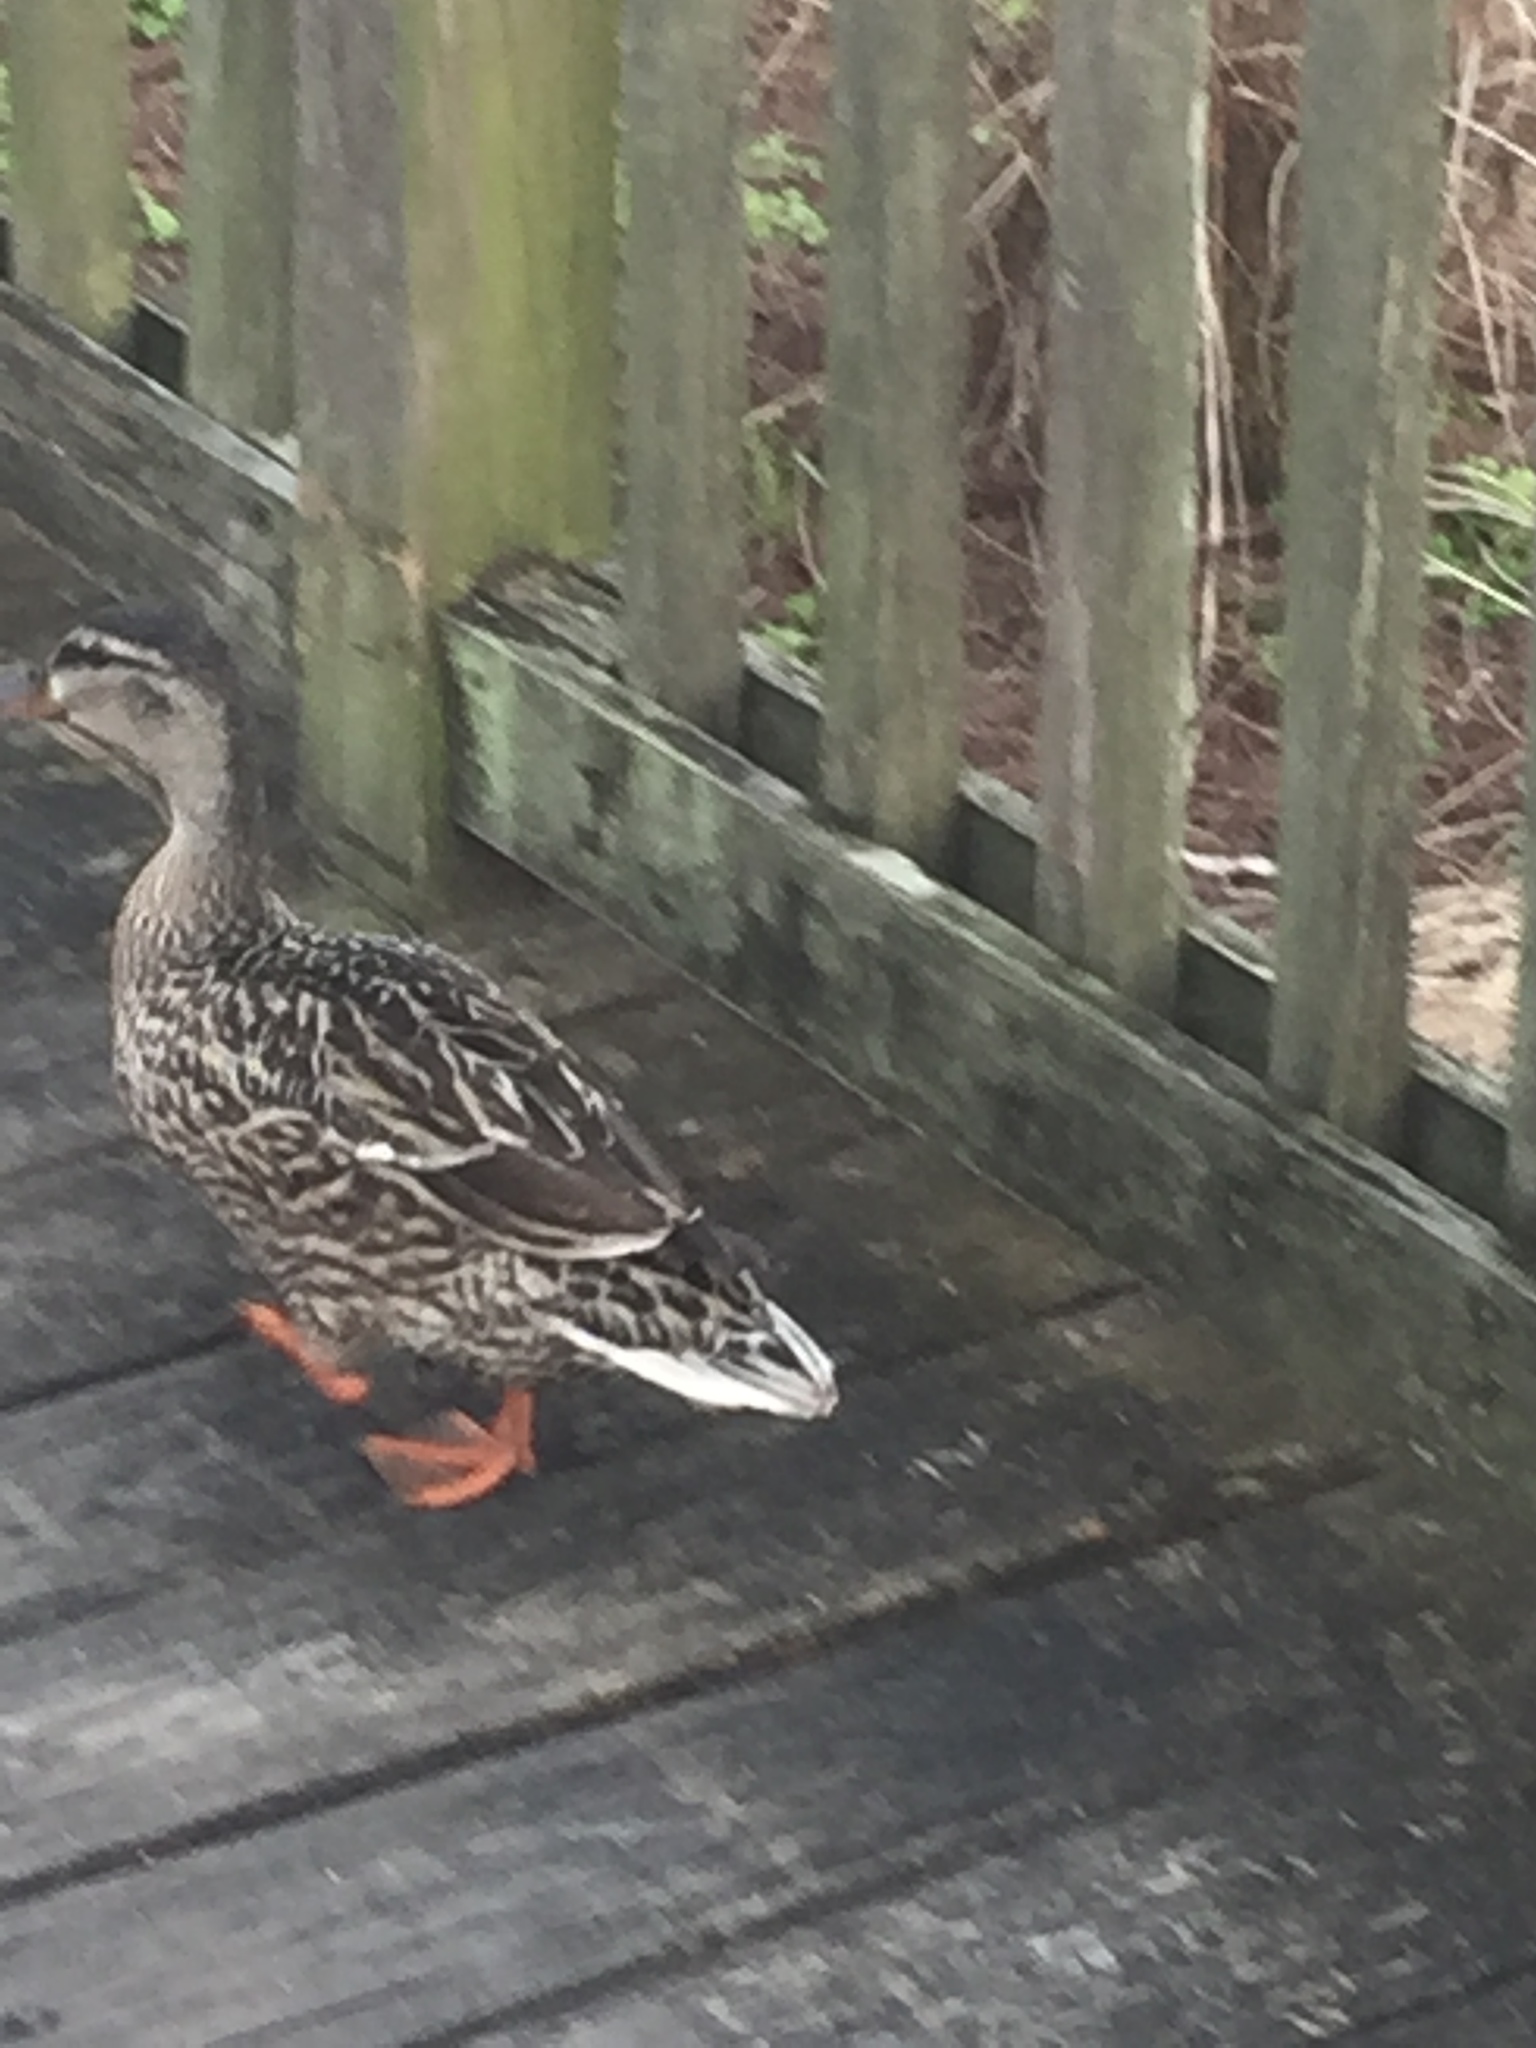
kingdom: Animalia
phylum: Chordata
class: Aves
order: Anseriformes
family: Anatidae
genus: Anas
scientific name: Anas platyrhynchos
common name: Mallard
